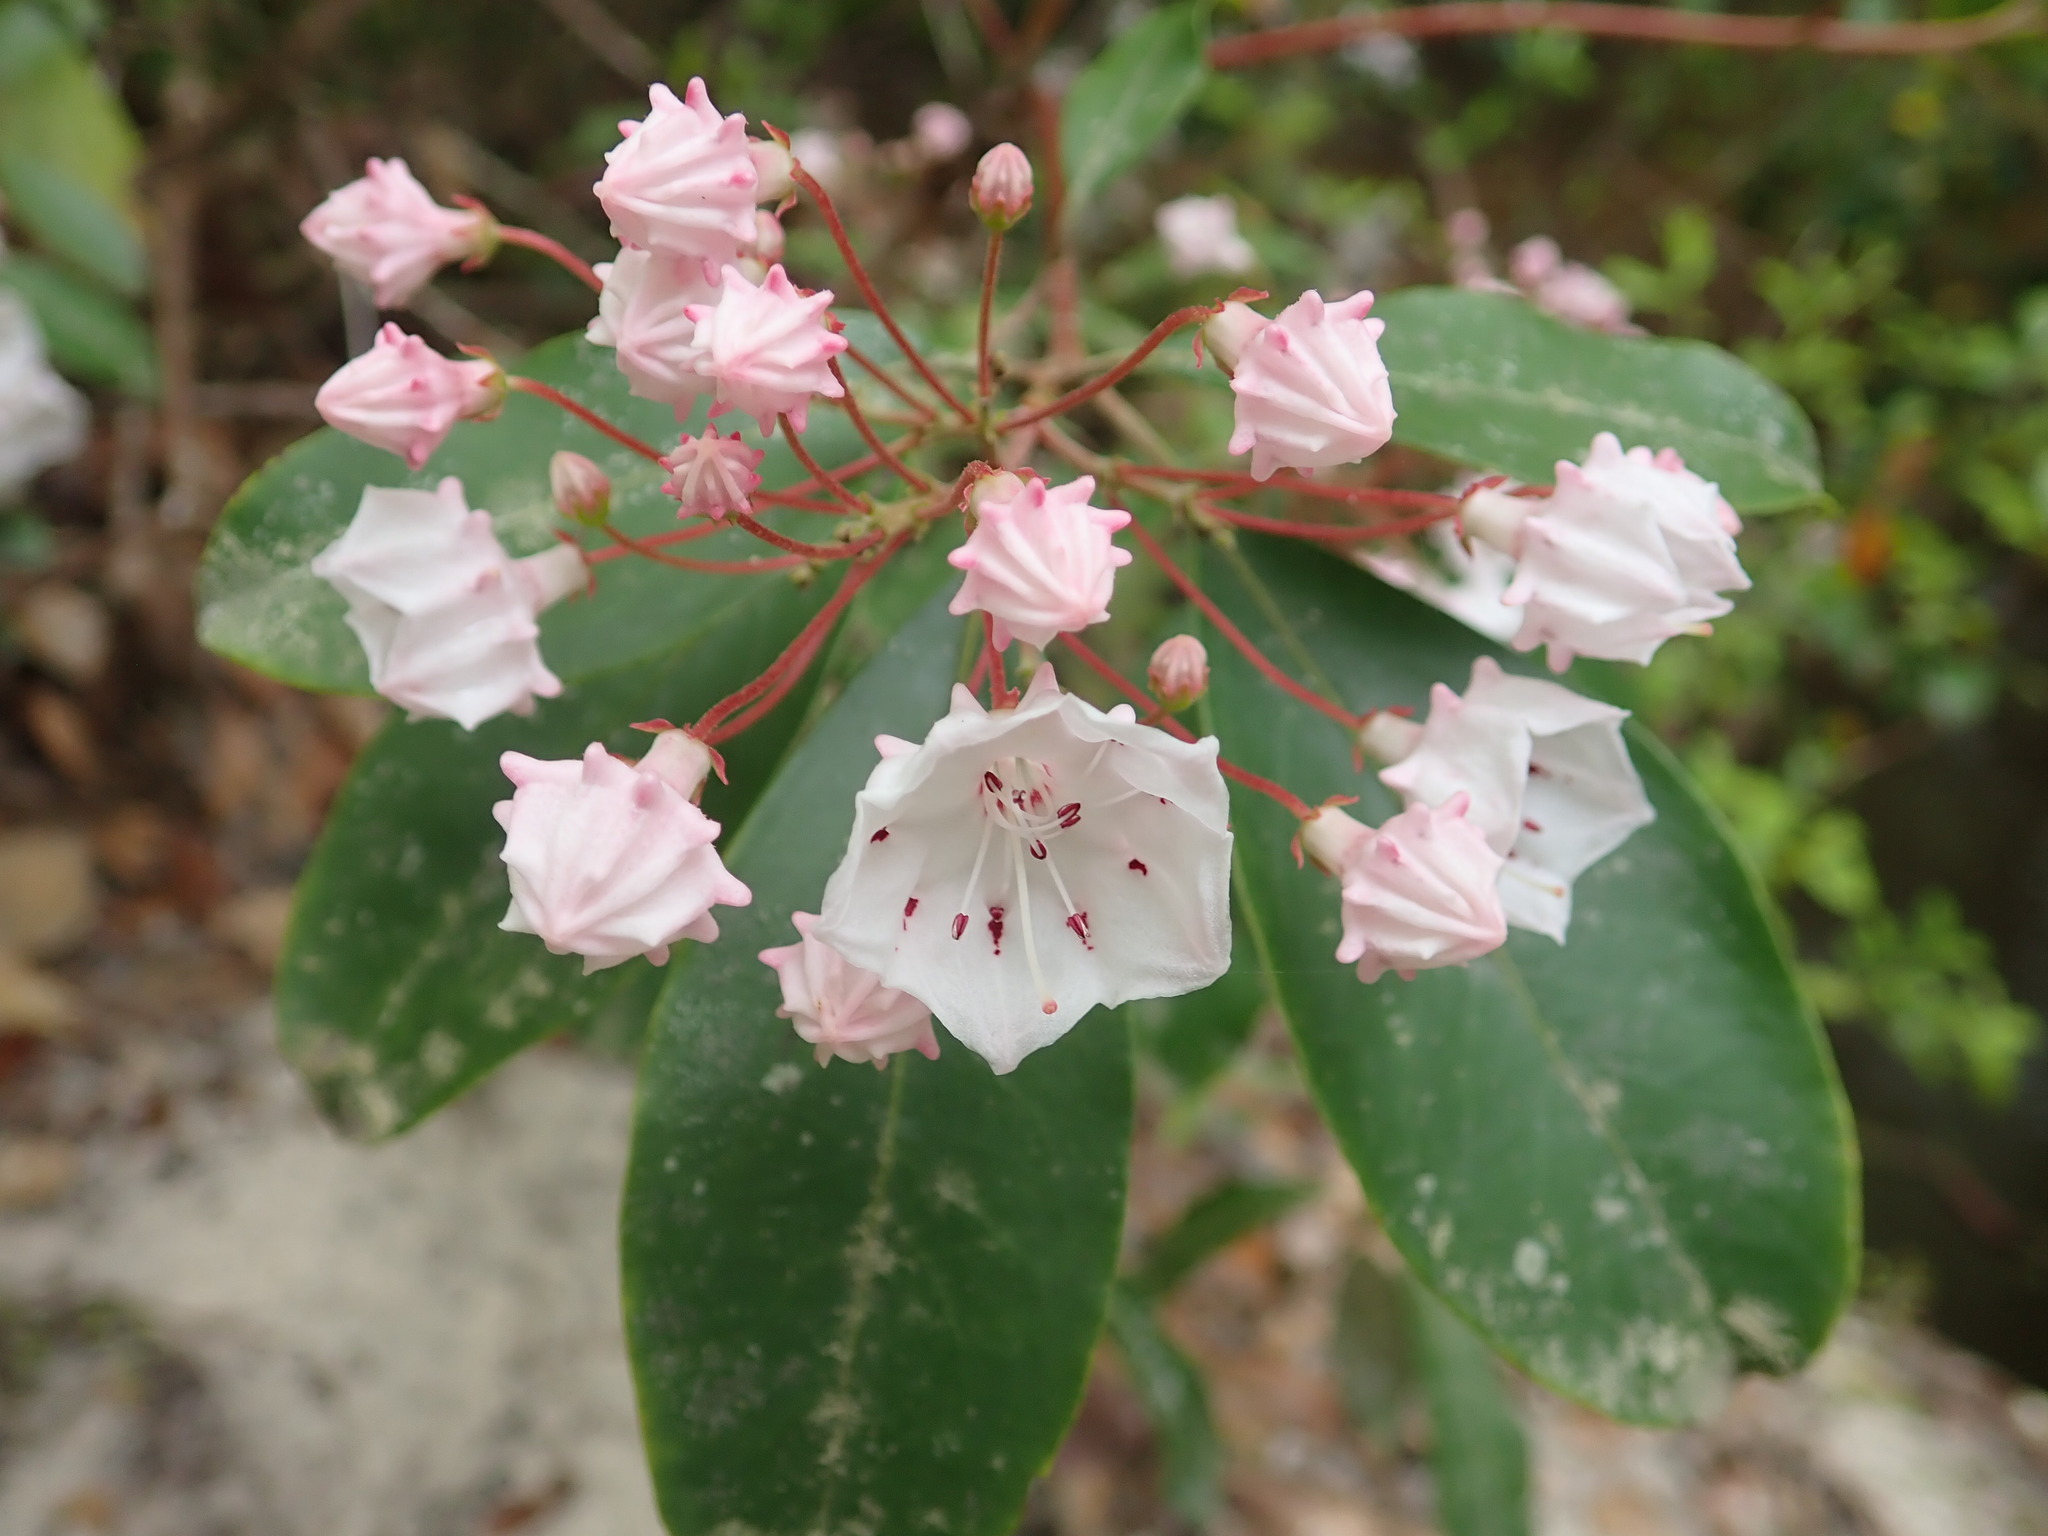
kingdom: Plantae
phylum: Tracheophyta
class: Magnoliopsida
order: Ericales
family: Ericaceae
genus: Kalmia
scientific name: Kalmia latifolia
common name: Mountain-laurel
